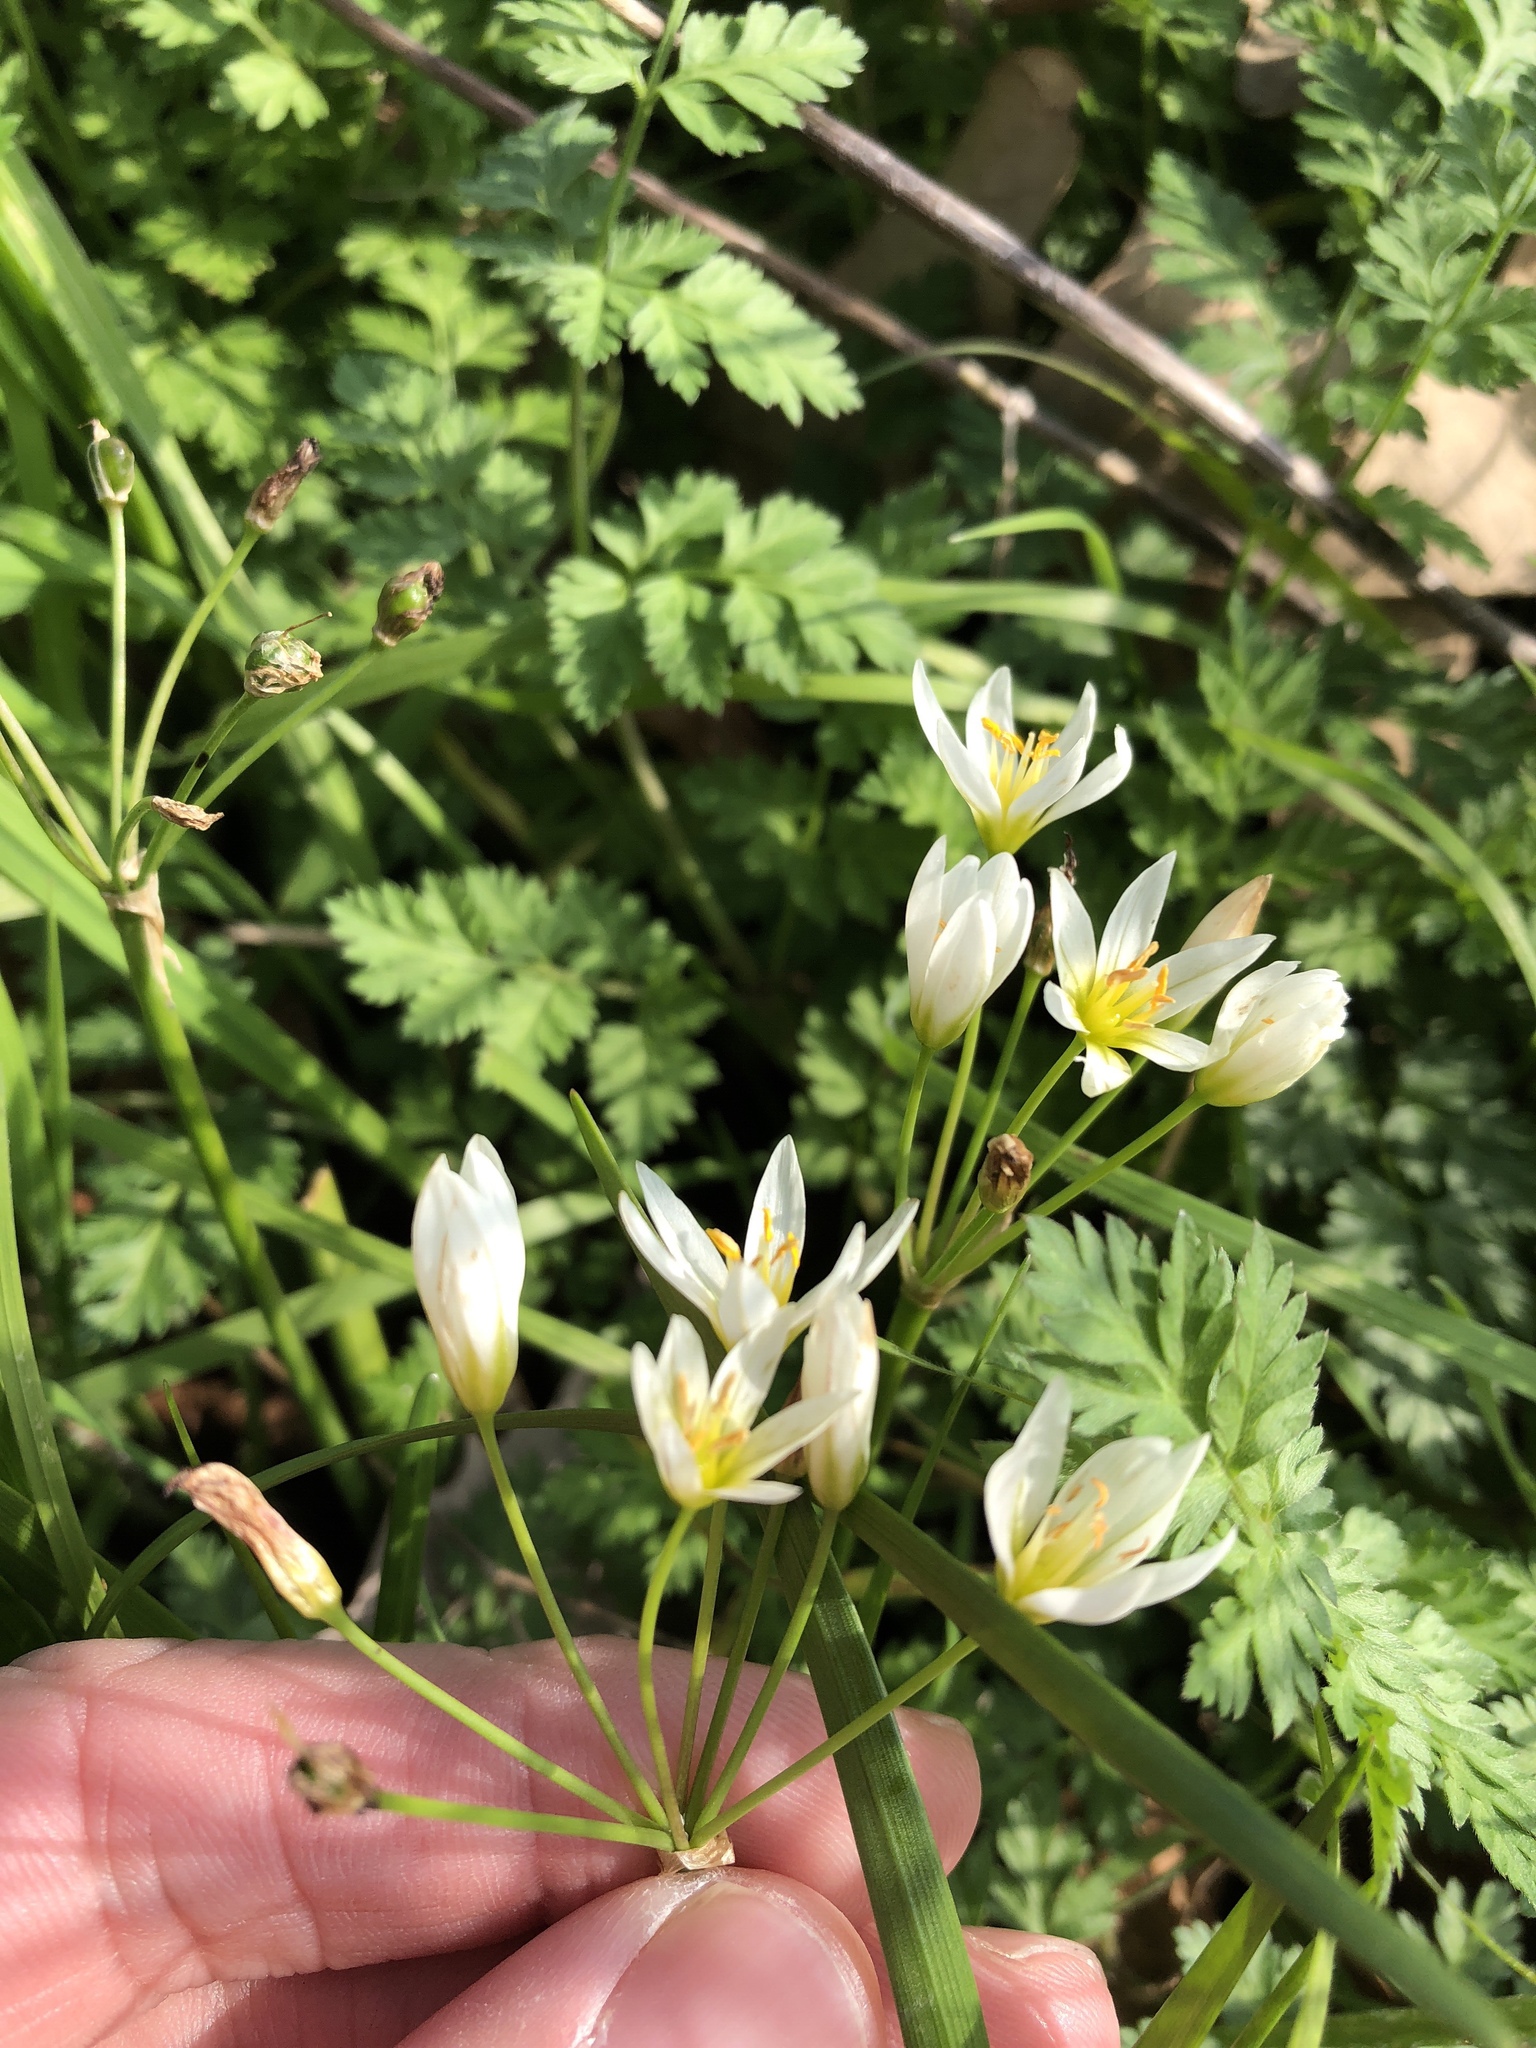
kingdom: Plantae
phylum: Tracheophyta
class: Liliopsida
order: Asparagales
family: Amaryllidaceae
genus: Nothoscordum
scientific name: Nothoscordum bivalve
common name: Crow-poison
